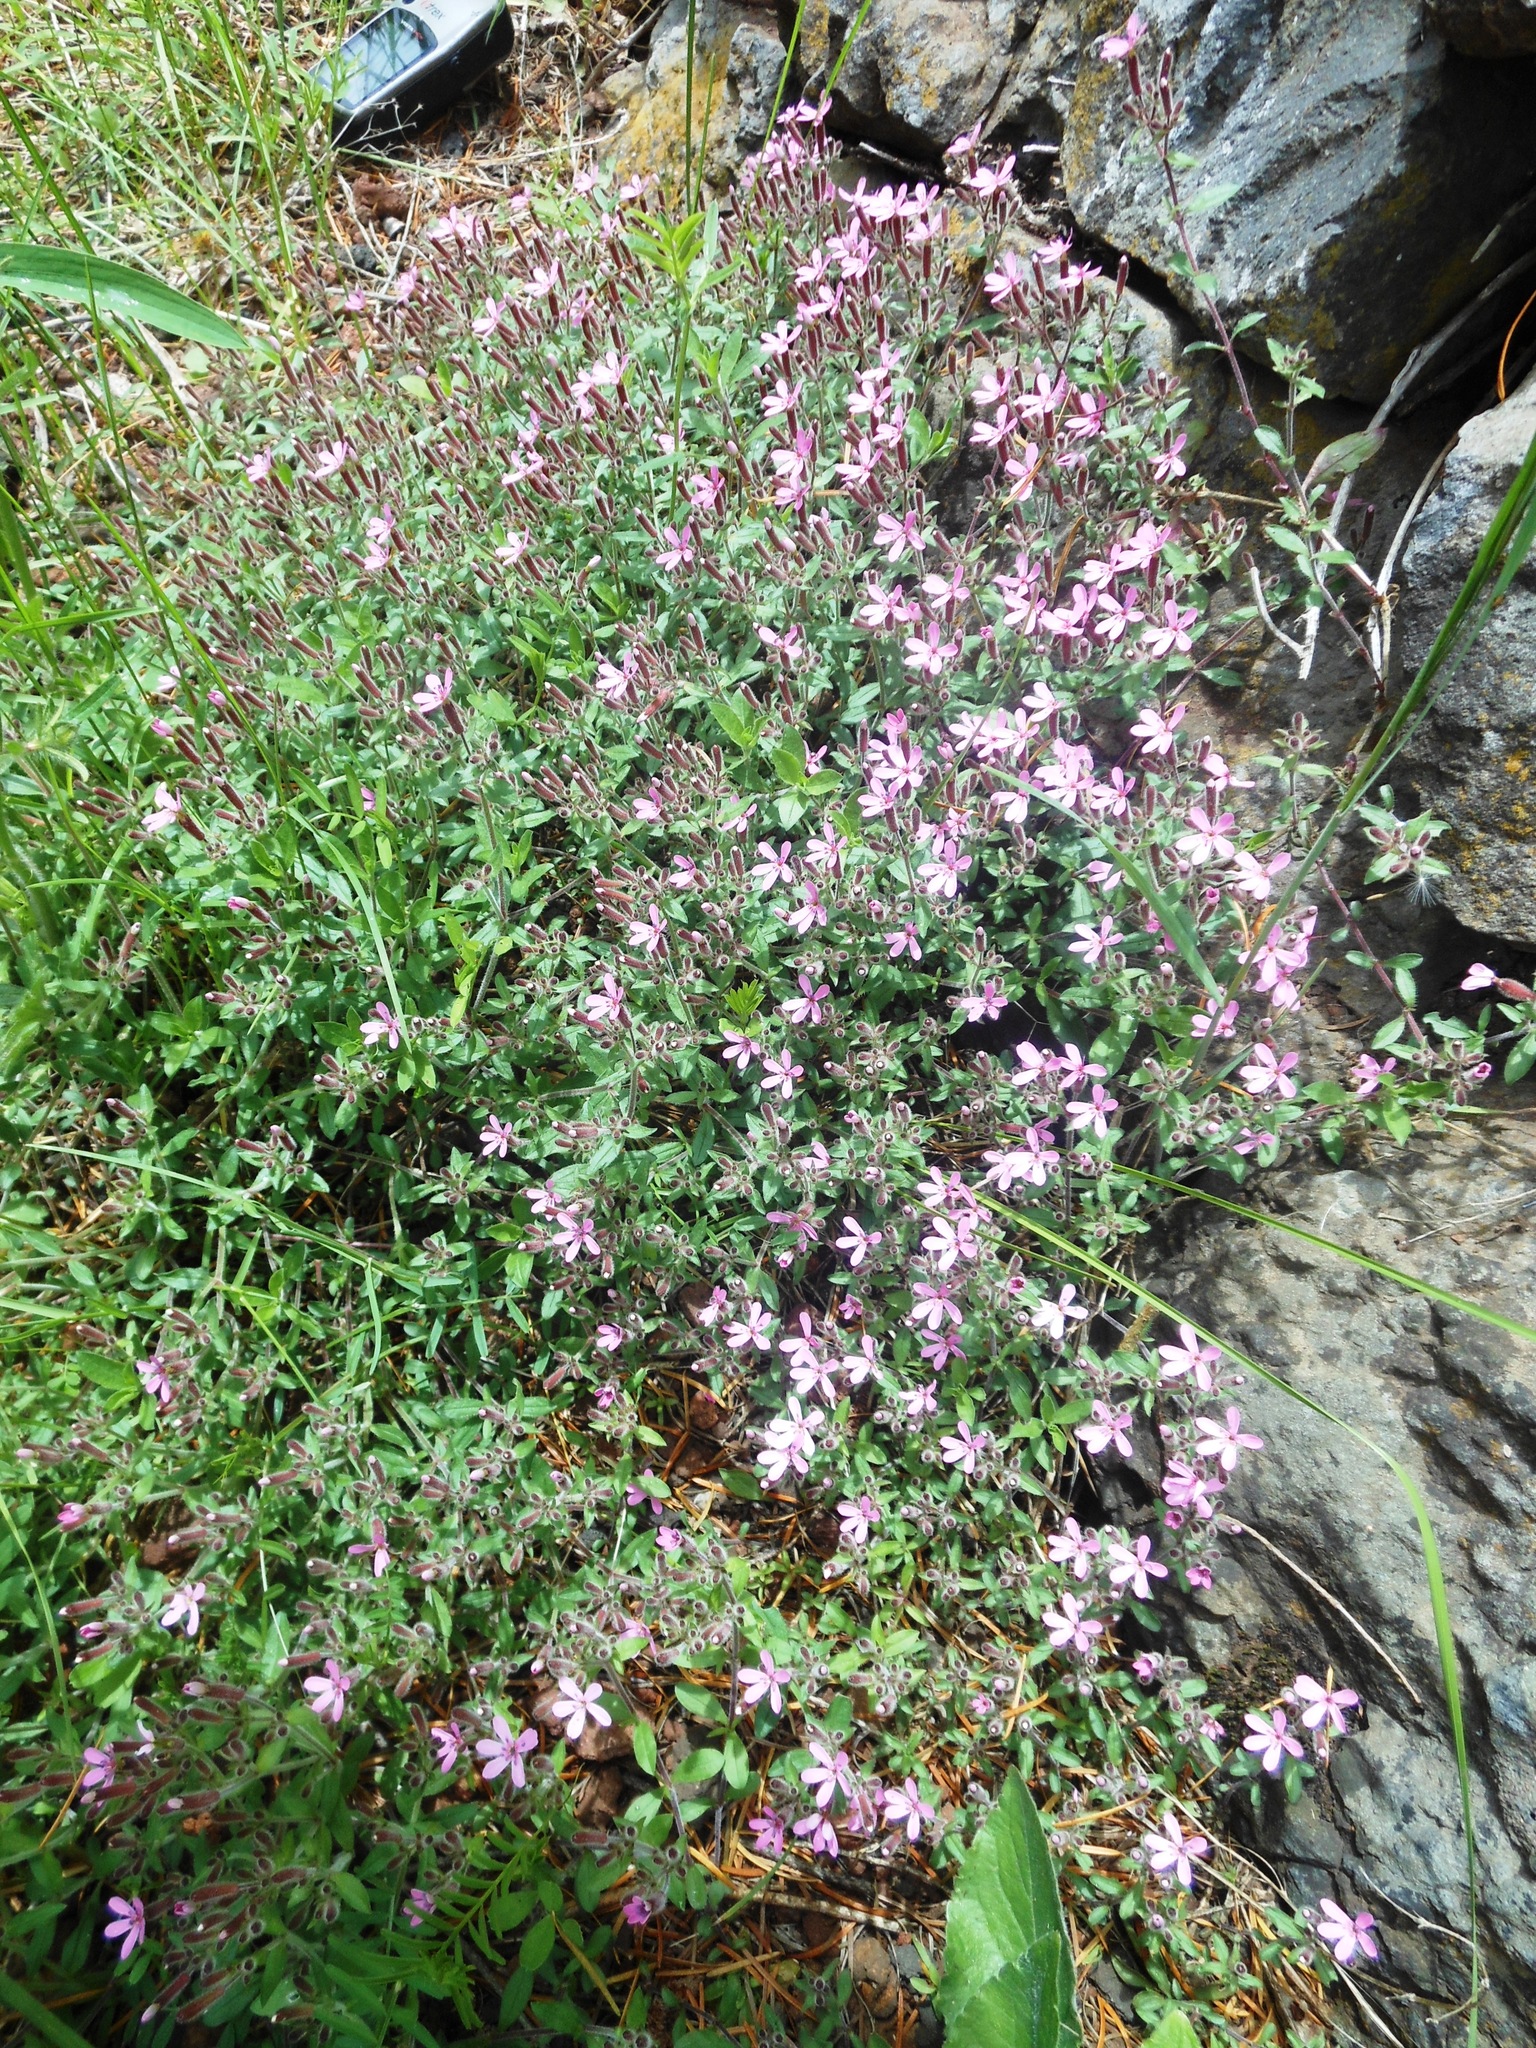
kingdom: Plantae
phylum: Tracheophyta
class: Magnoliopsida
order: Caryophyllales
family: Caryophyllaceae
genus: Saponaria
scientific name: Saponaria ocymoides
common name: Rock soapwort
